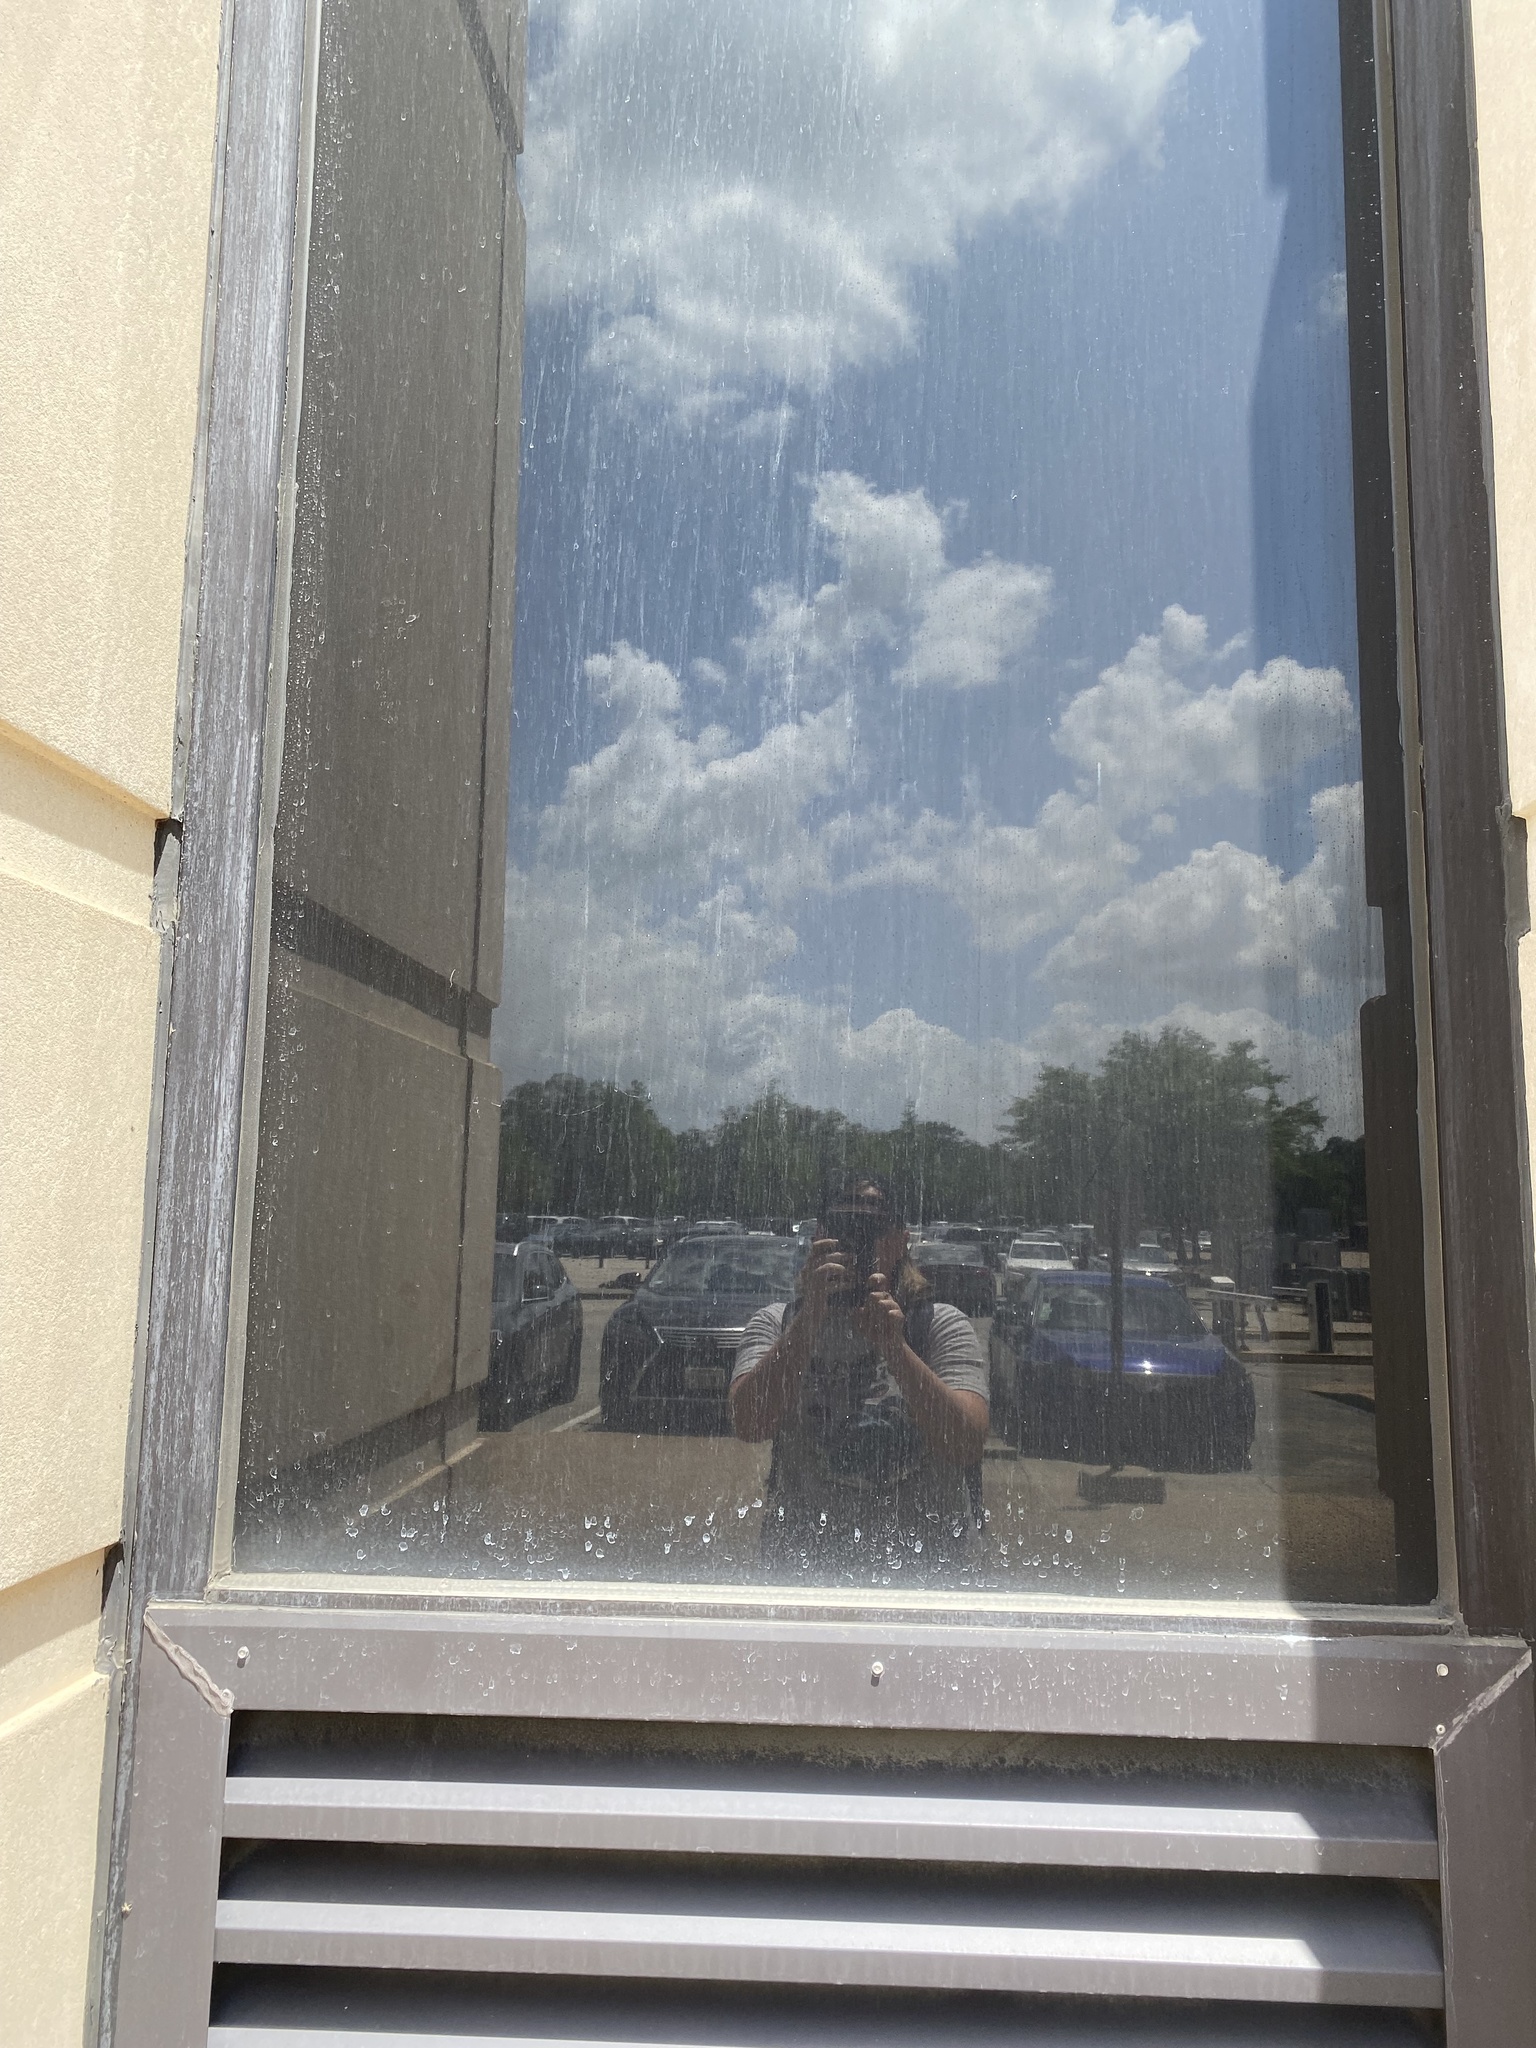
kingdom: Animalia
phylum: Chordata
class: Aves
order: Columbiformes
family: Columbidae
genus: Columba
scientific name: Columba livia
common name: Rock pigeon
